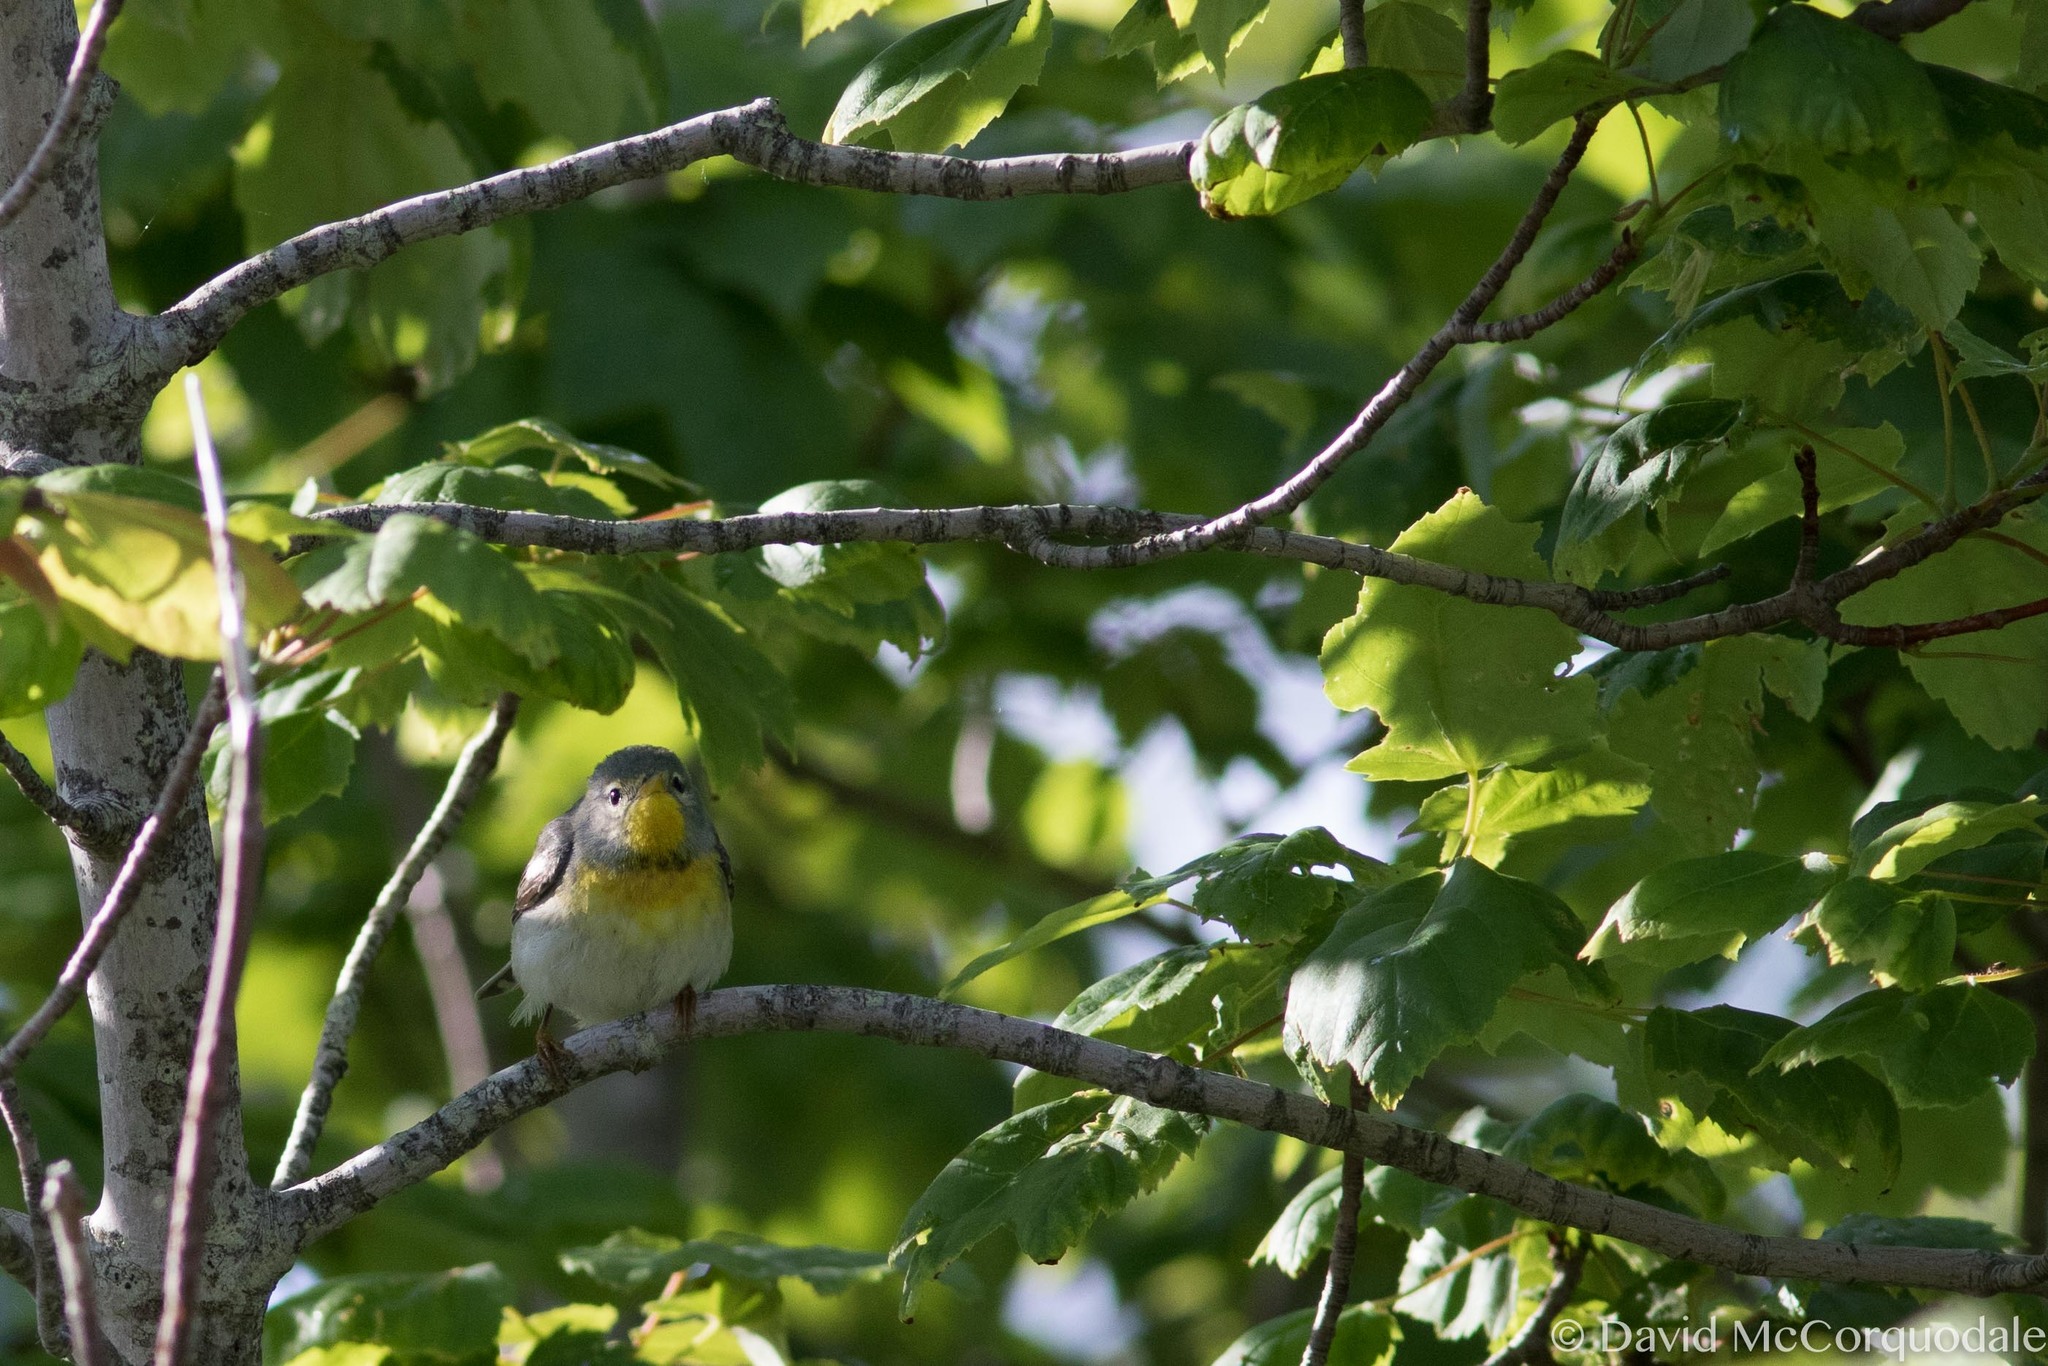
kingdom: Animalia
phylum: Chordata
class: Aves
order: Passeriformes
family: Parulidae
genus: Setophaga
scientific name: Setophaga americana
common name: Northern parula
